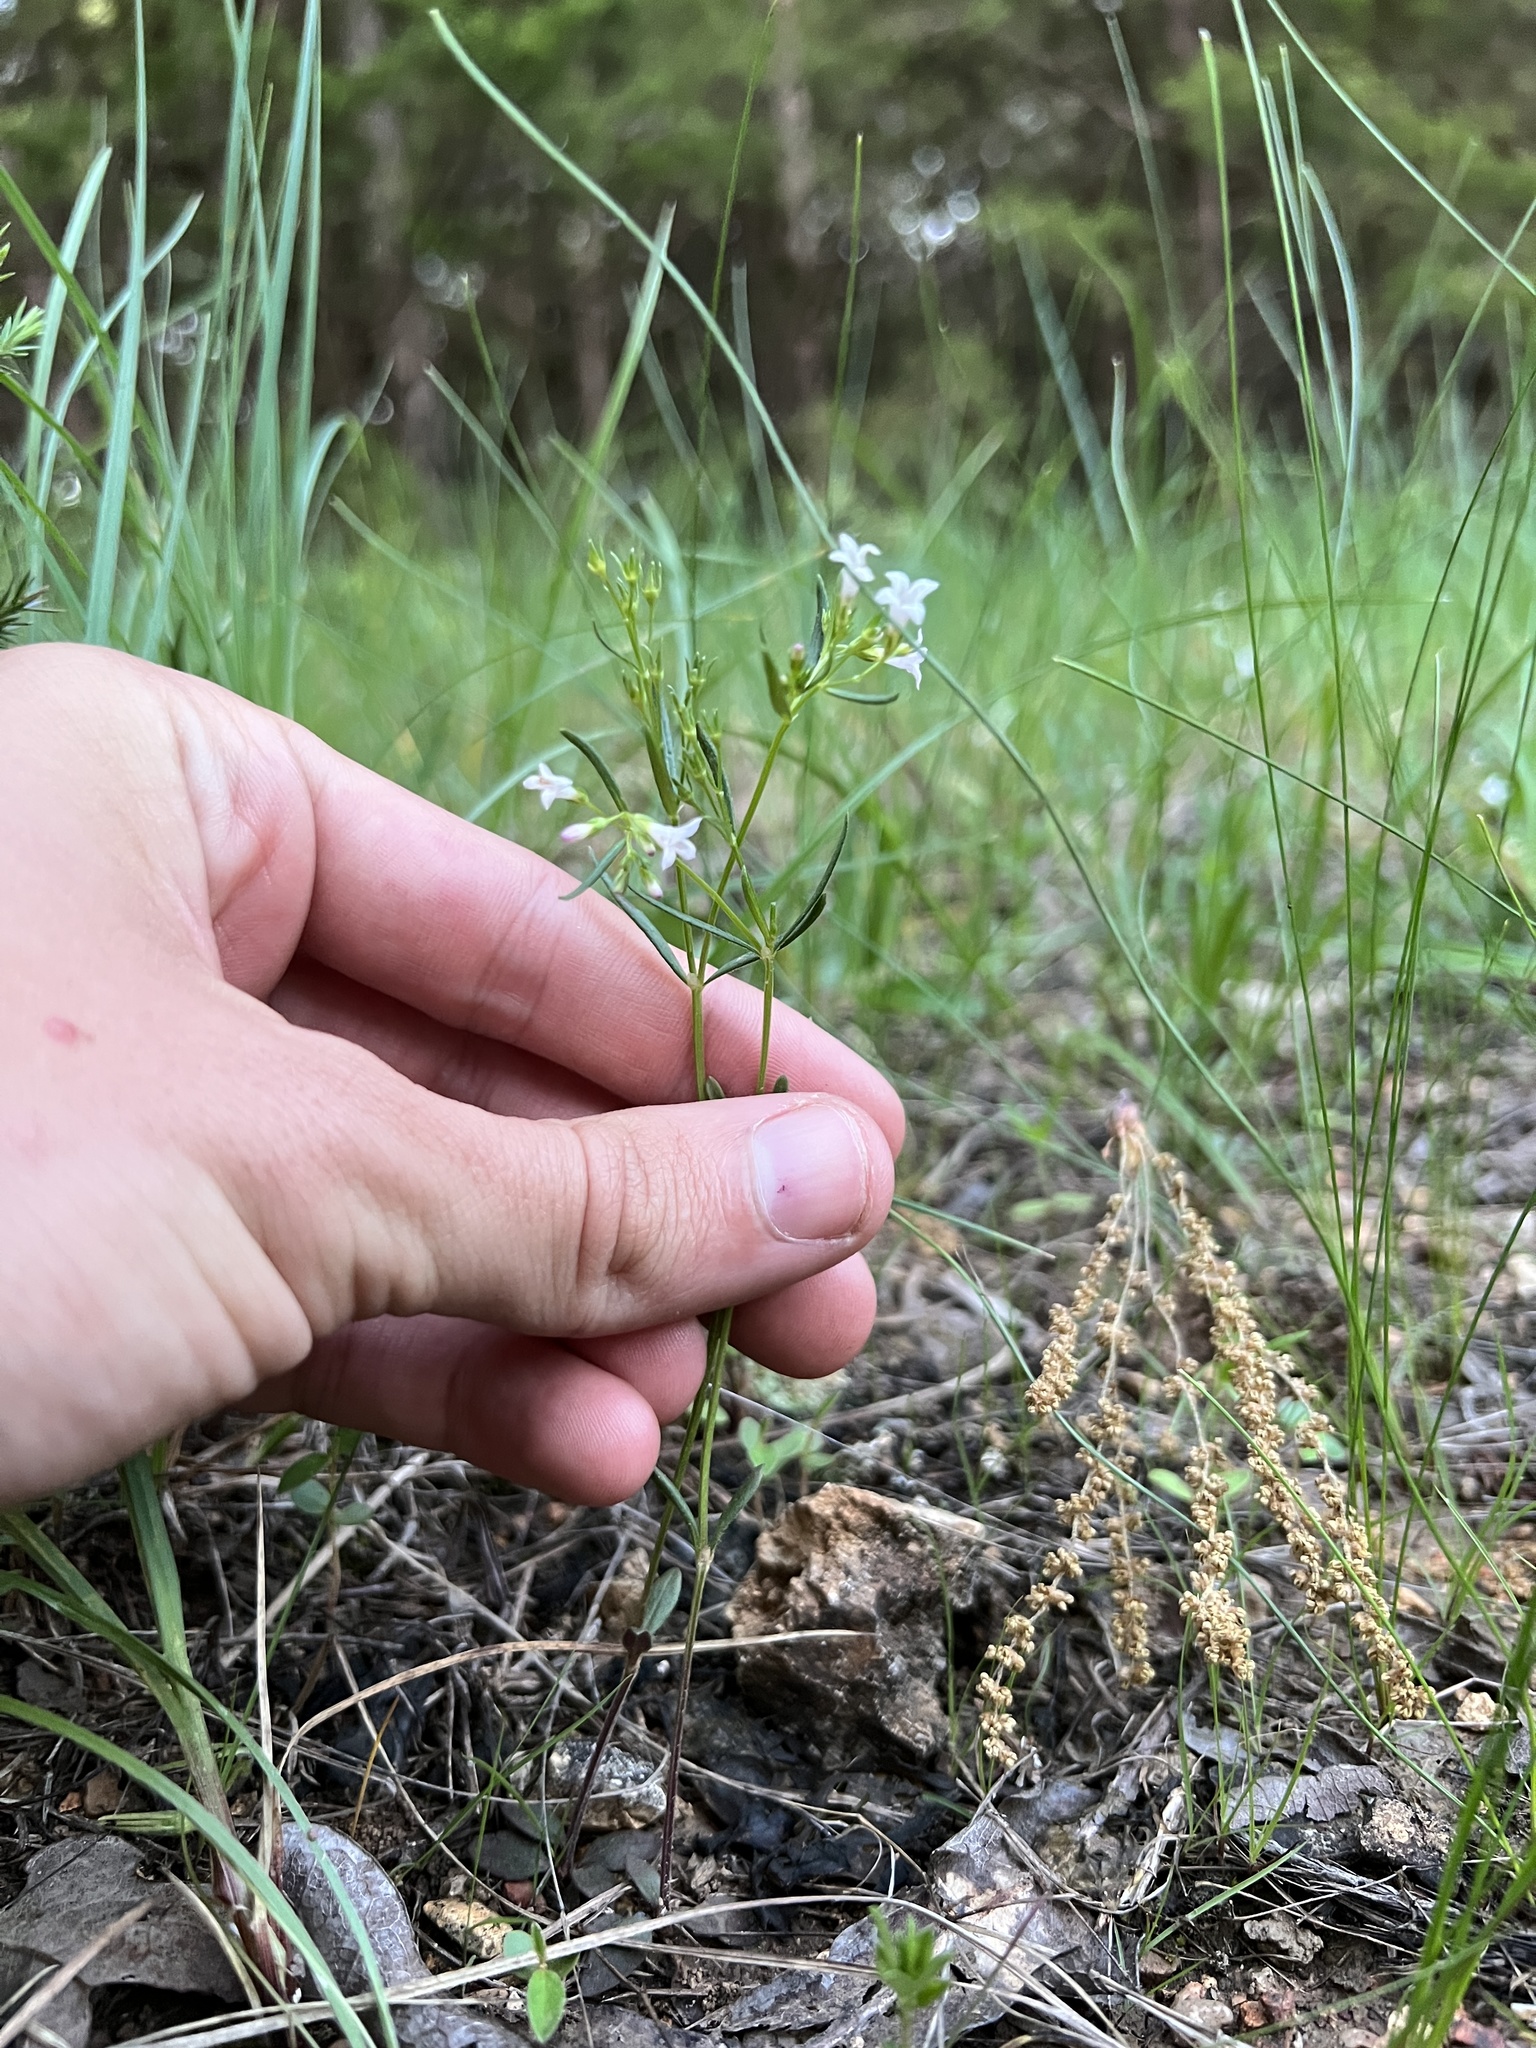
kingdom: Plantae
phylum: Tracheophyta
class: Magnoliopsida
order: Gentianales
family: Rubiaceae
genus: Houstonia
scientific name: Houstonia longifolia
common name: Long-leaved bluets
